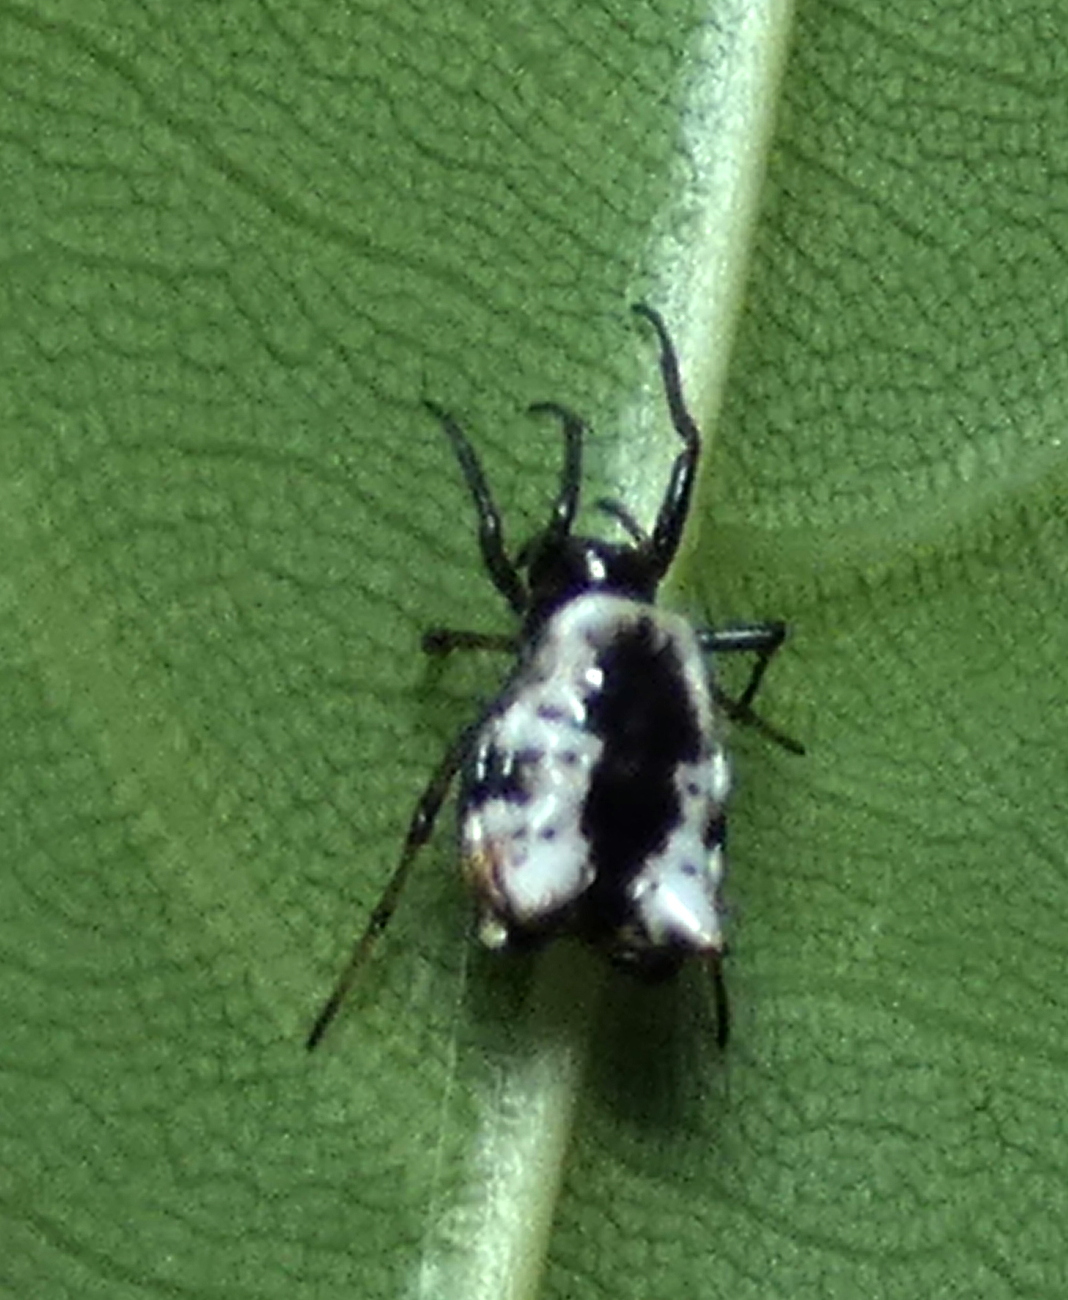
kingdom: Animalia
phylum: Arthropoda
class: Arachnida
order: Araneae
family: Araneidae
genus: Micrathena
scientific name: Micrathena patruelis
